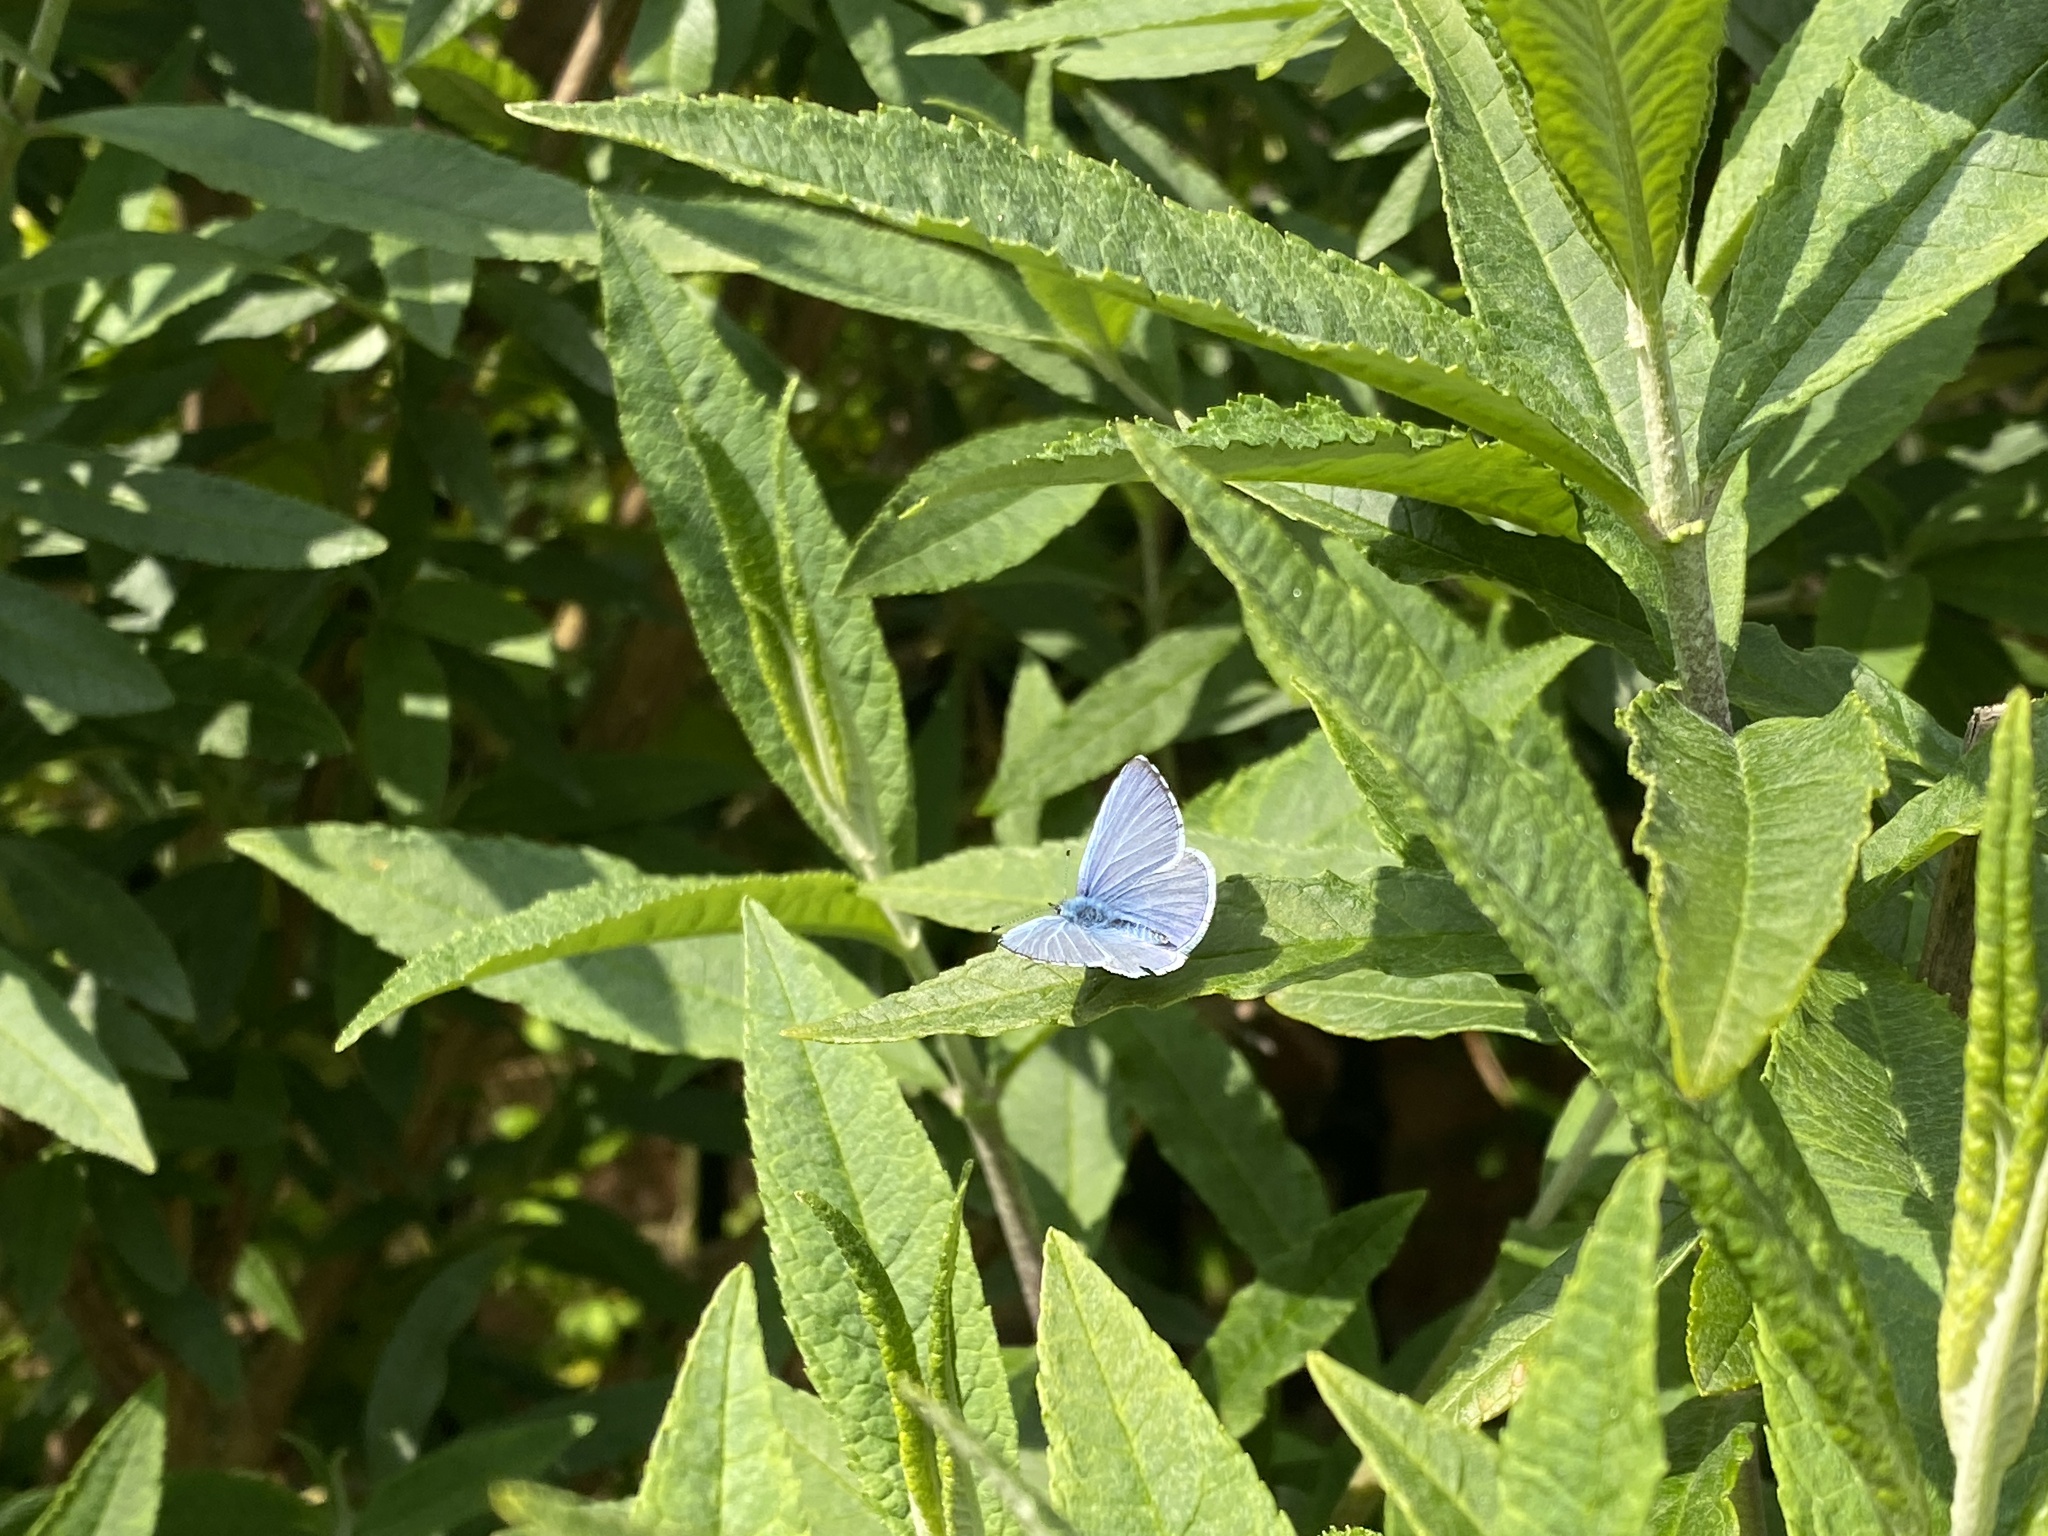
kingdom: Animalia
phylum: Arthropoda
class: Insecta
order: Lepidoptera
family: Lycaenidae
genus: Celastrina
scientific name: Celastrina argiolus
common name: Holly blue
